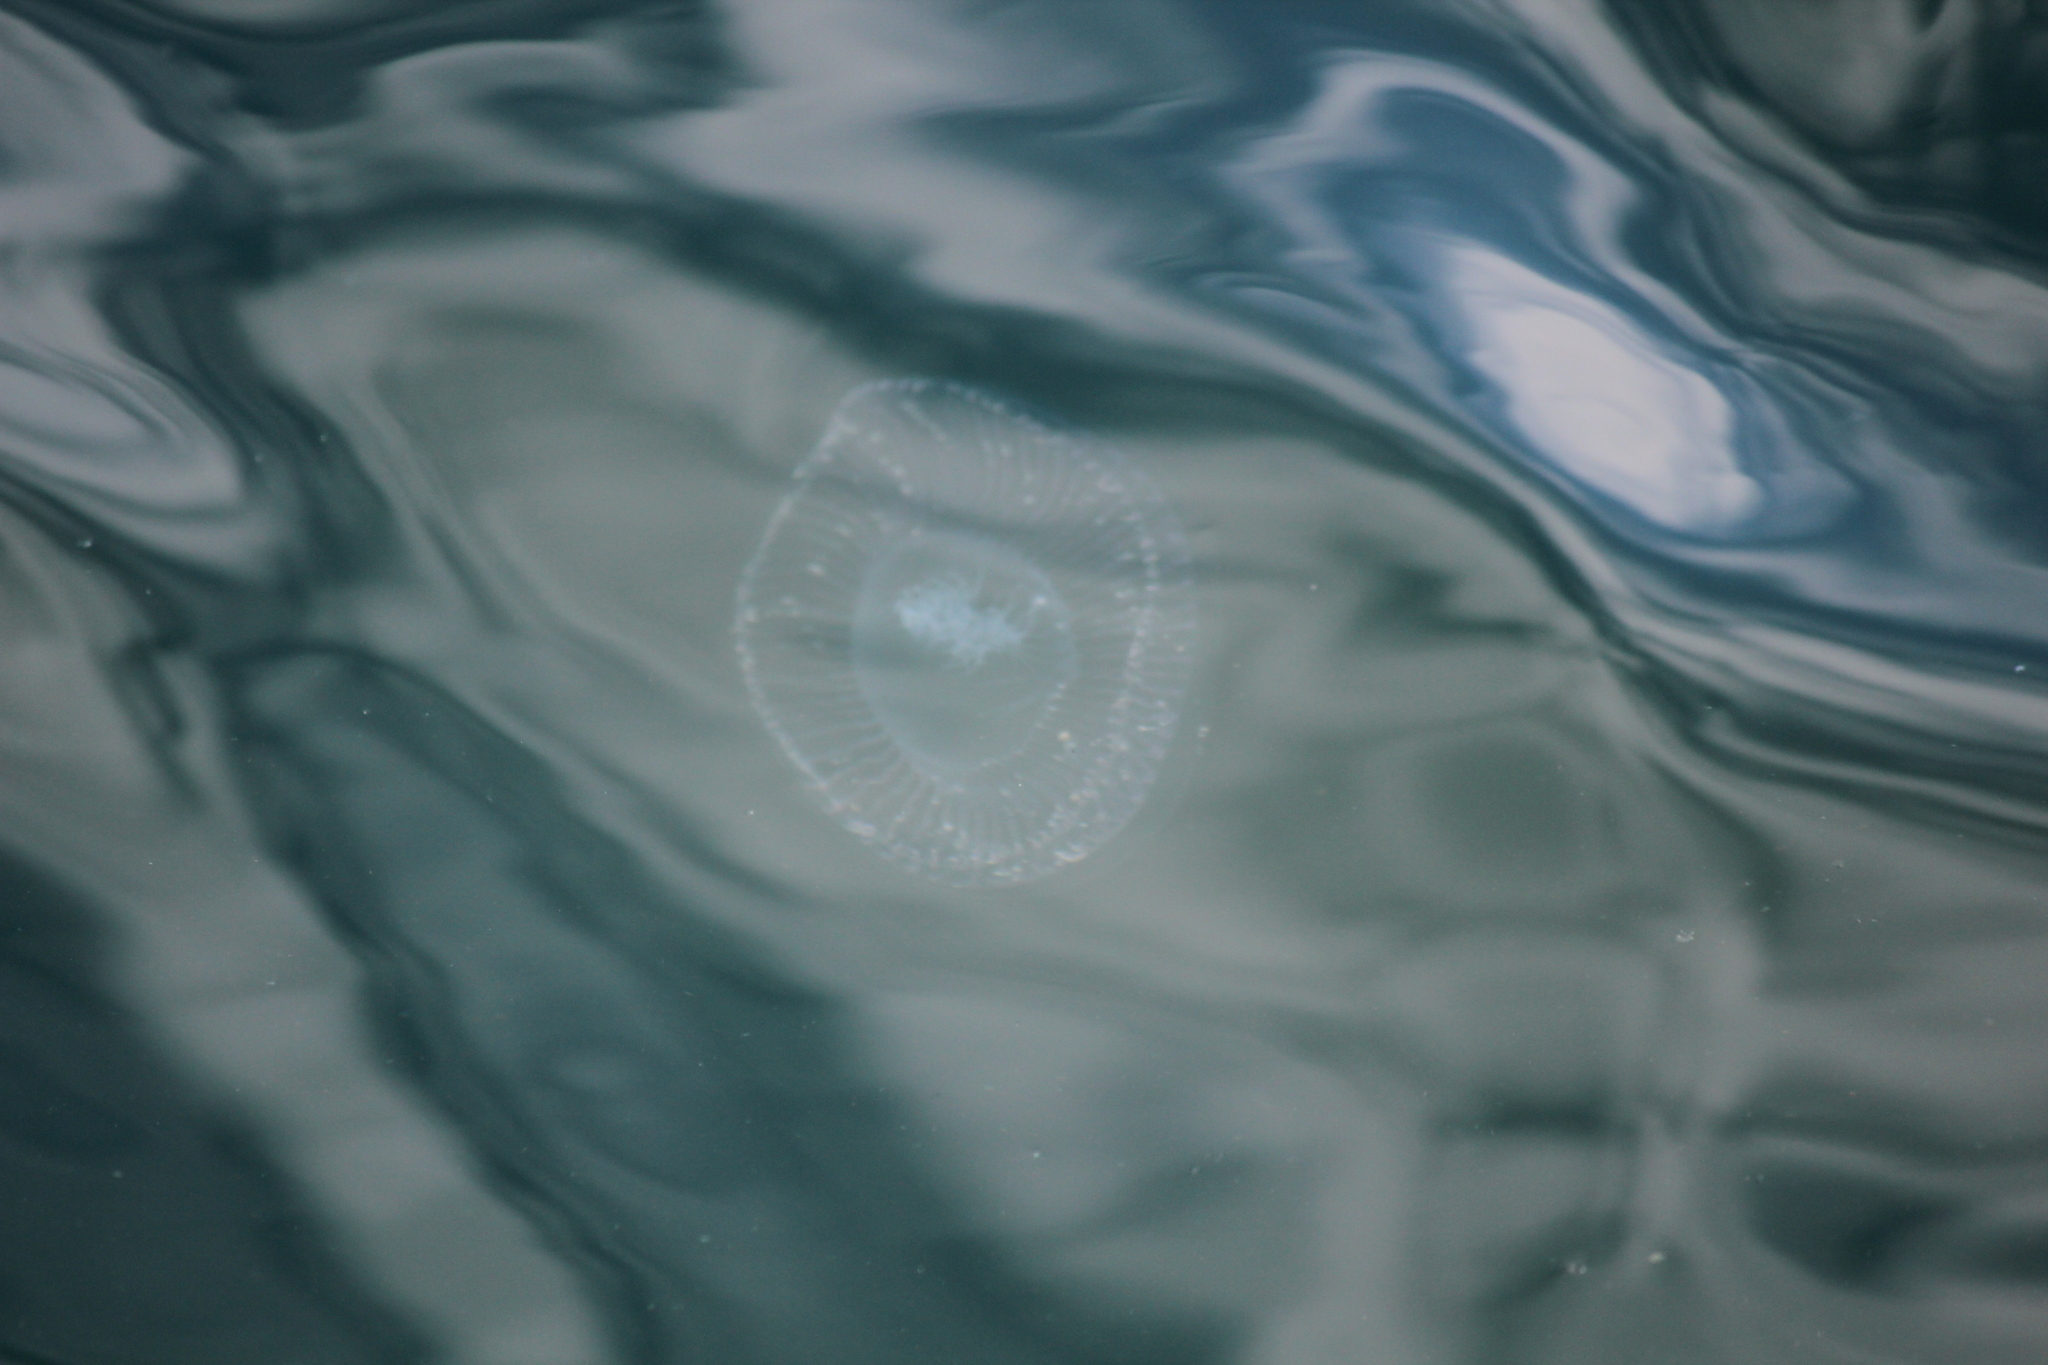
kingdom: Animalia
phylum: Cnidaria
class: Hydrozoa
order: Leptothecata
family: Aequoreidae
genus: Aequorea
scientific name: Aequorea victoria
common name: Water jellyfish
